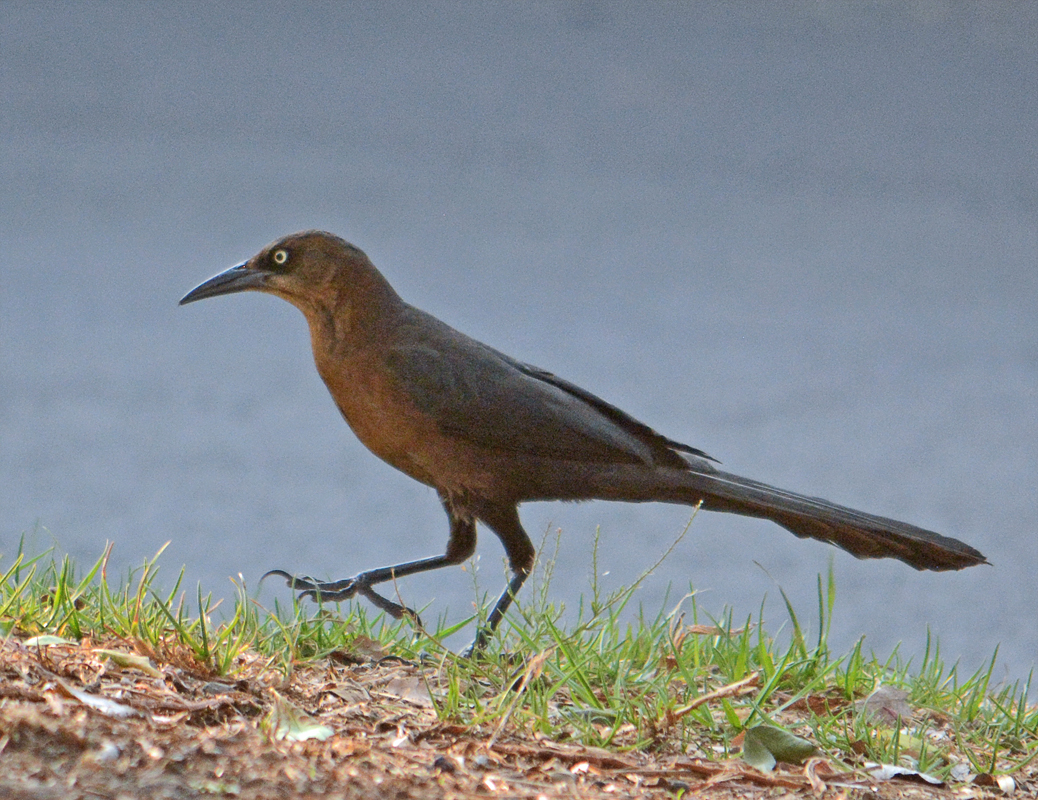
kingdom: Animalia
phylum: Chordata
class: Aves
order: Passeriformes
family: Icteridae
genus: Quiscalus
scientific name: Quiscalus mexicanus
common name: Great-tailed grackle
